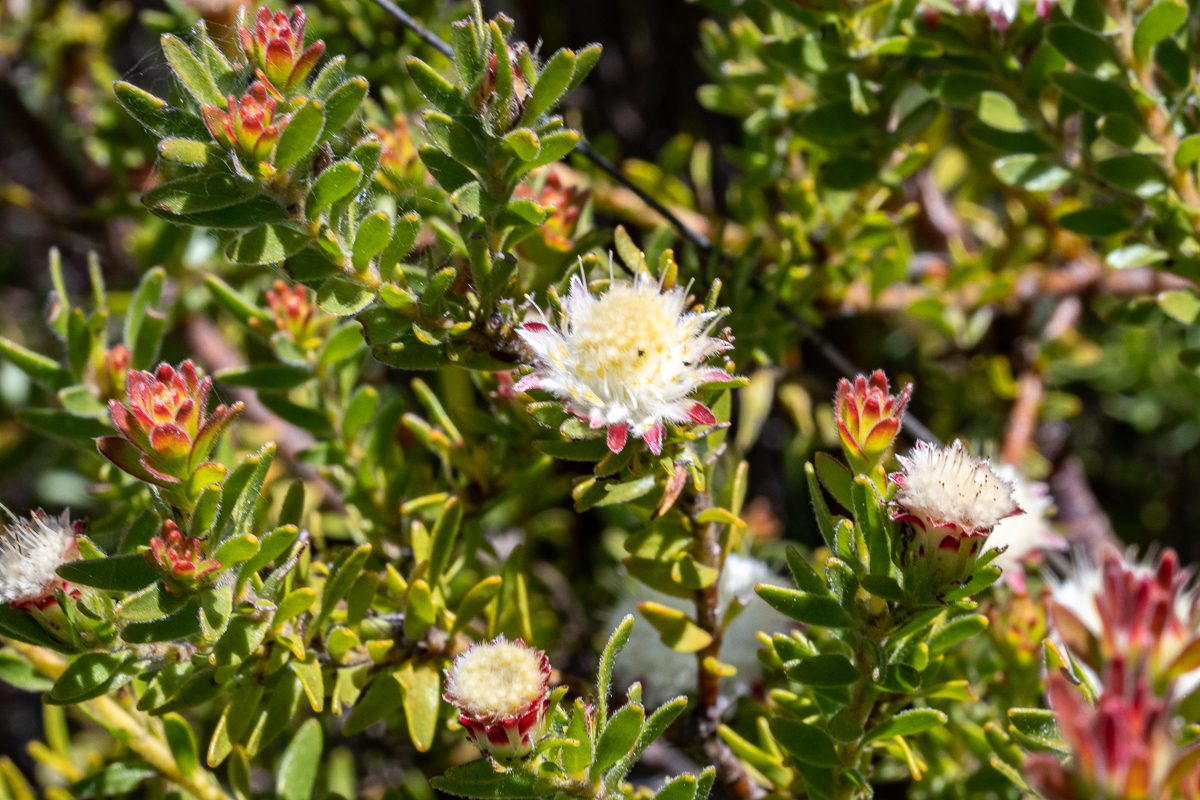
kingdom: Plantae
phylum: Tracheophyta
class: Magnoliopsida
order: Proteales
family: Proteaceae
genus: Diastella
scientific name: Diastella fraterna
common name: Palmiet silkypuff
